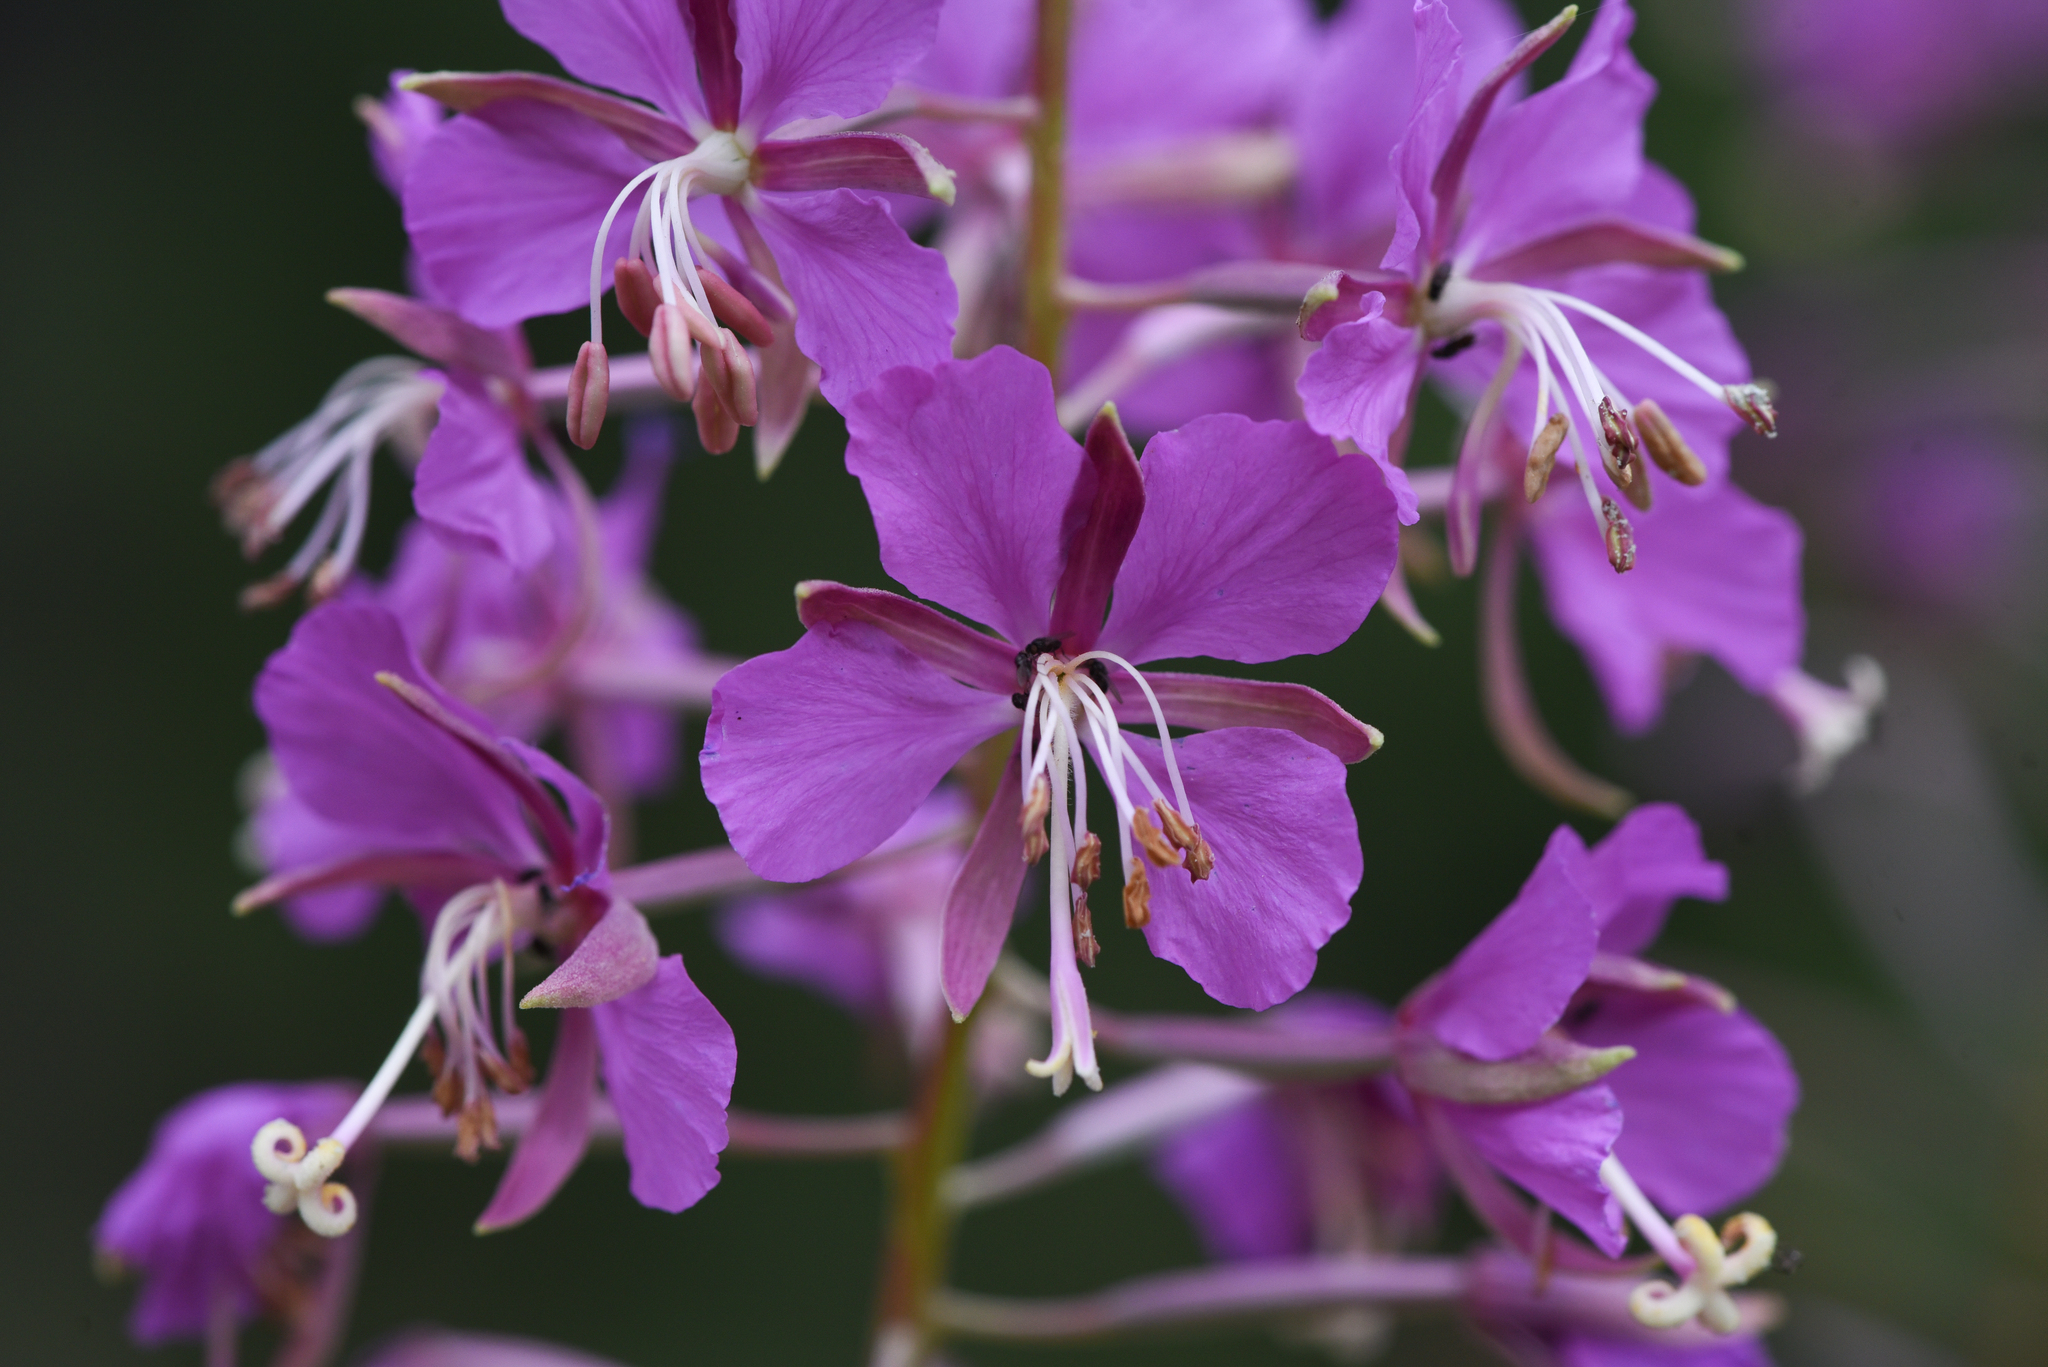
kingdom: Plantae
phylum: Tracheophyta
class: Magnoliopsida
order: Myrtales
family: Onagraceae
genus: Chamaenerion
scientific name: Chamaenerion angustifolium
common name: Fireweed
